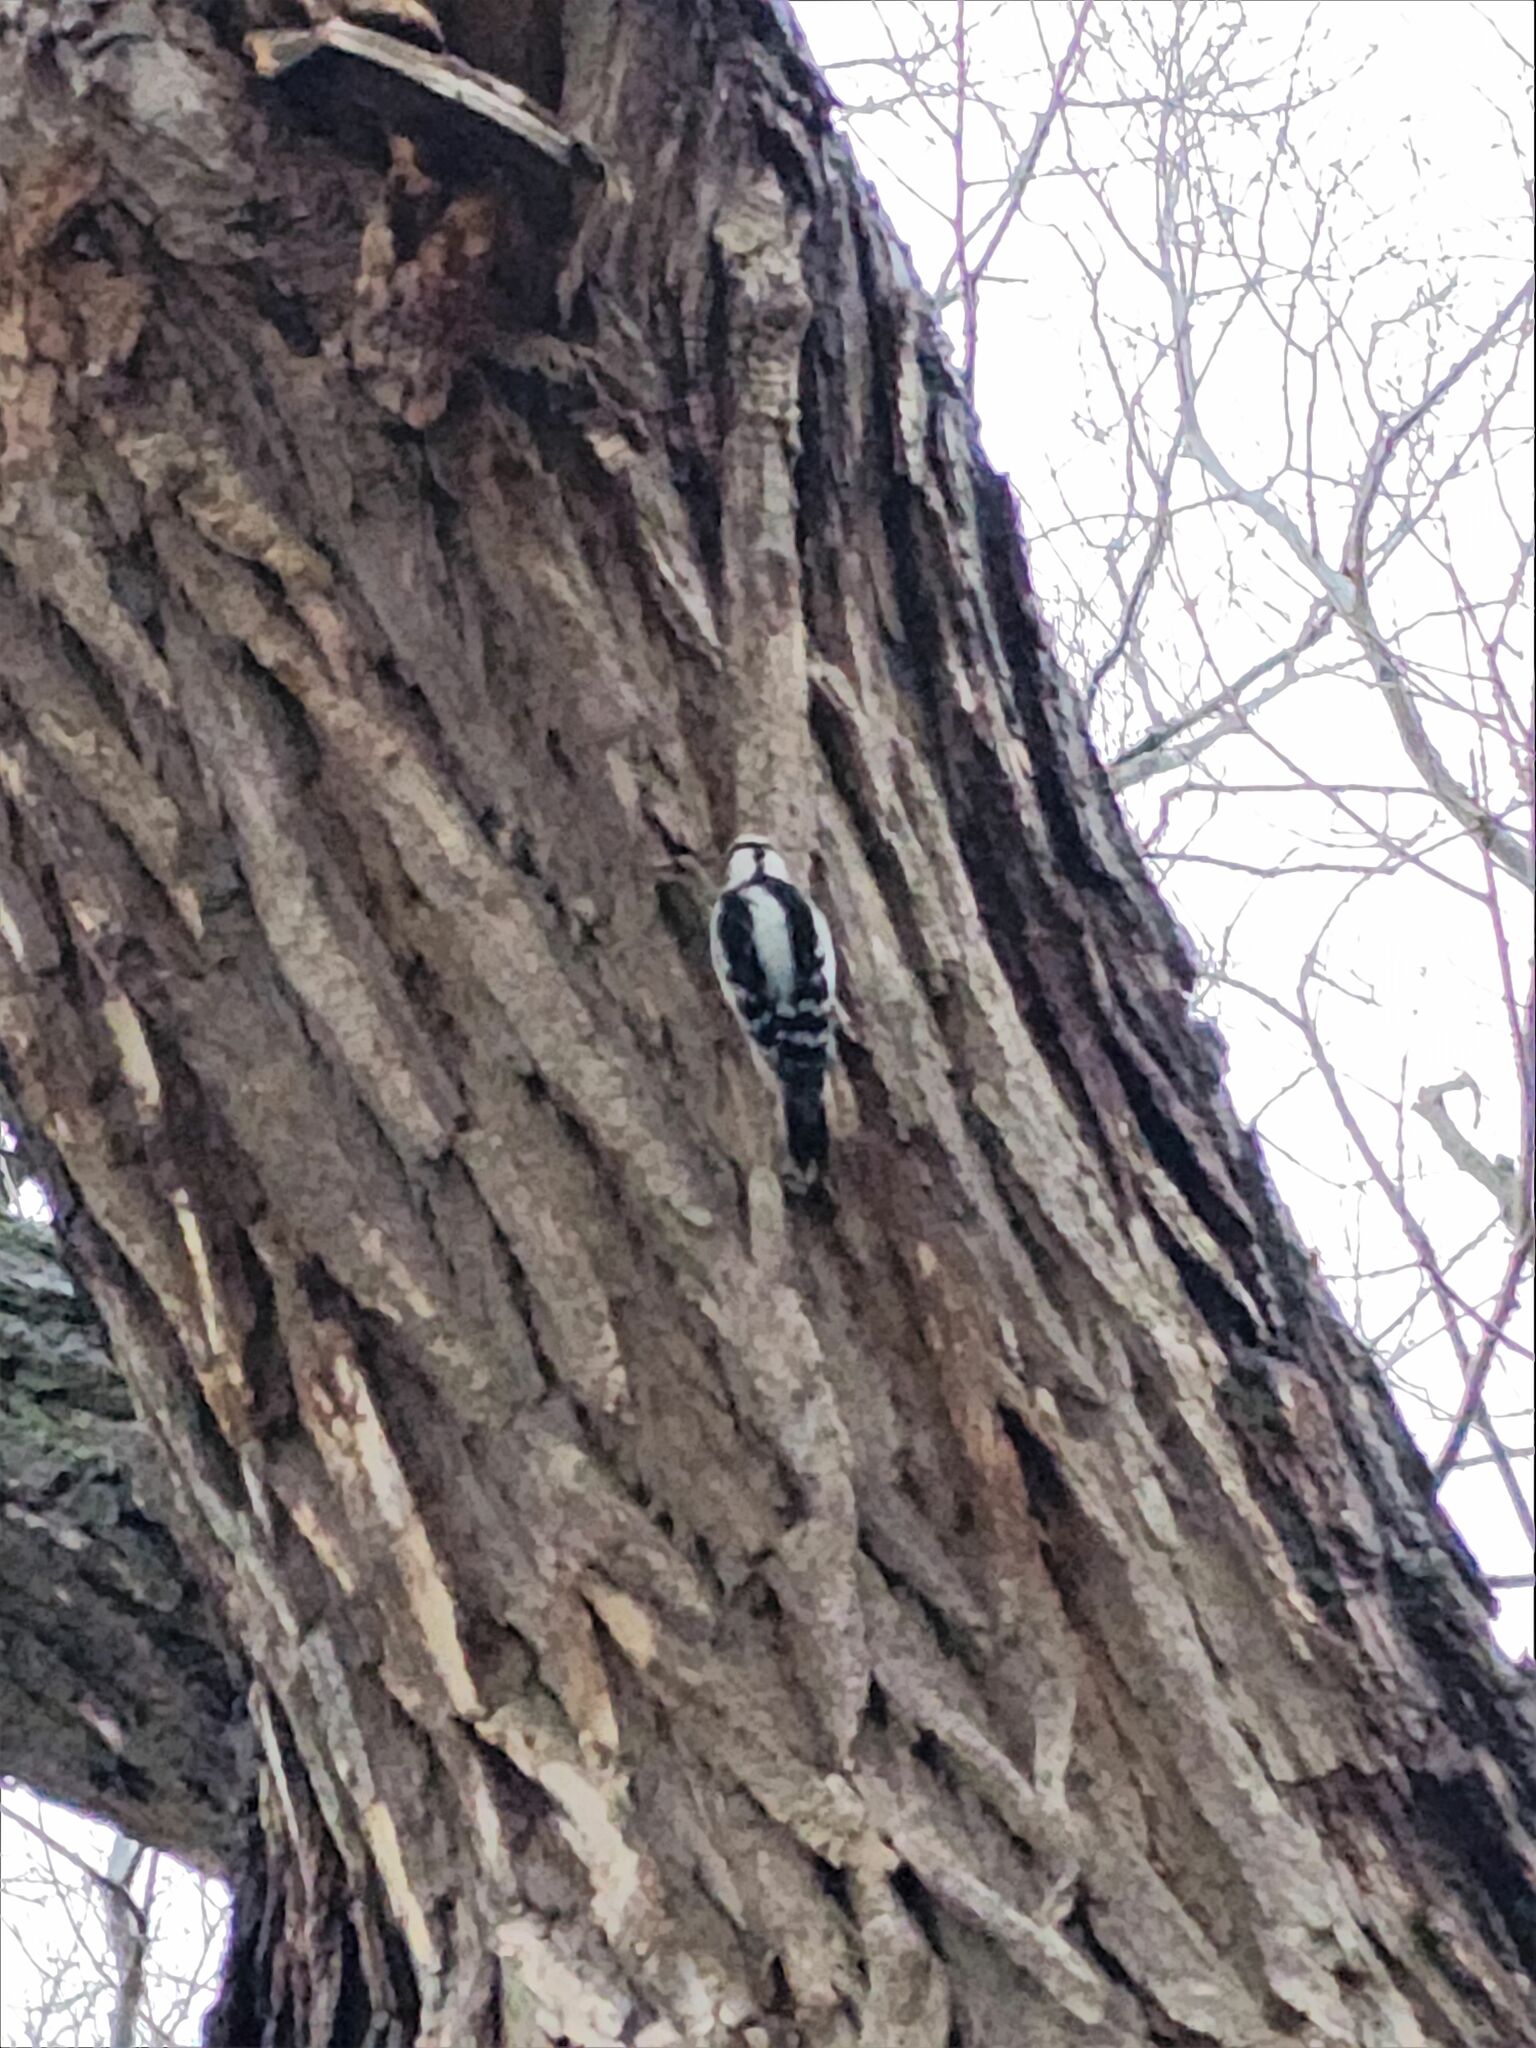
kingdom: Animalia
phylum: Chordata
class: Aves
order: Piciformes
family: Picidae
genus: Dryobates
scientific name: Dryobates pubescens
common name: Downy woodpecker
